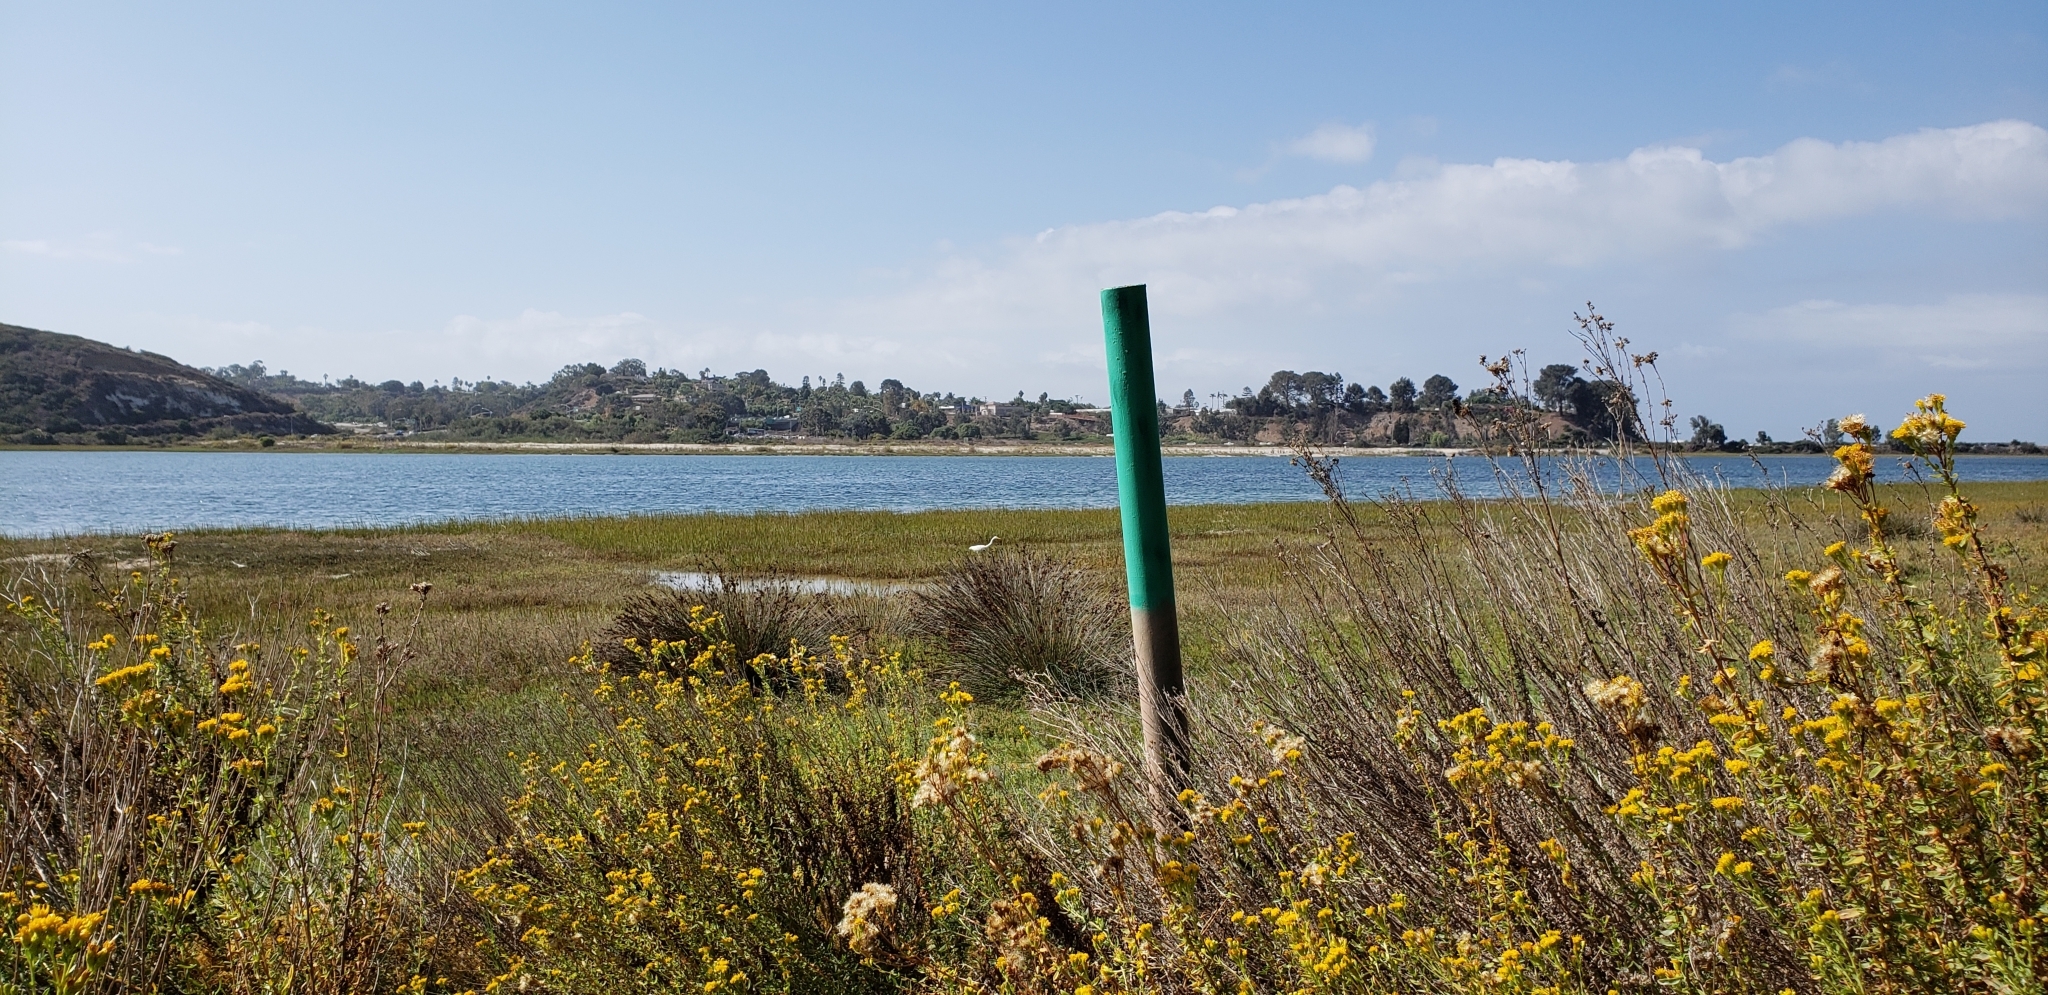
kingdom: Animalia
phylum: Chordata
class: Aves
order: Pelecaniformes
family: Ardeidae
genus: Ardea
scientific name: Ardea alba
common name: Great egret
